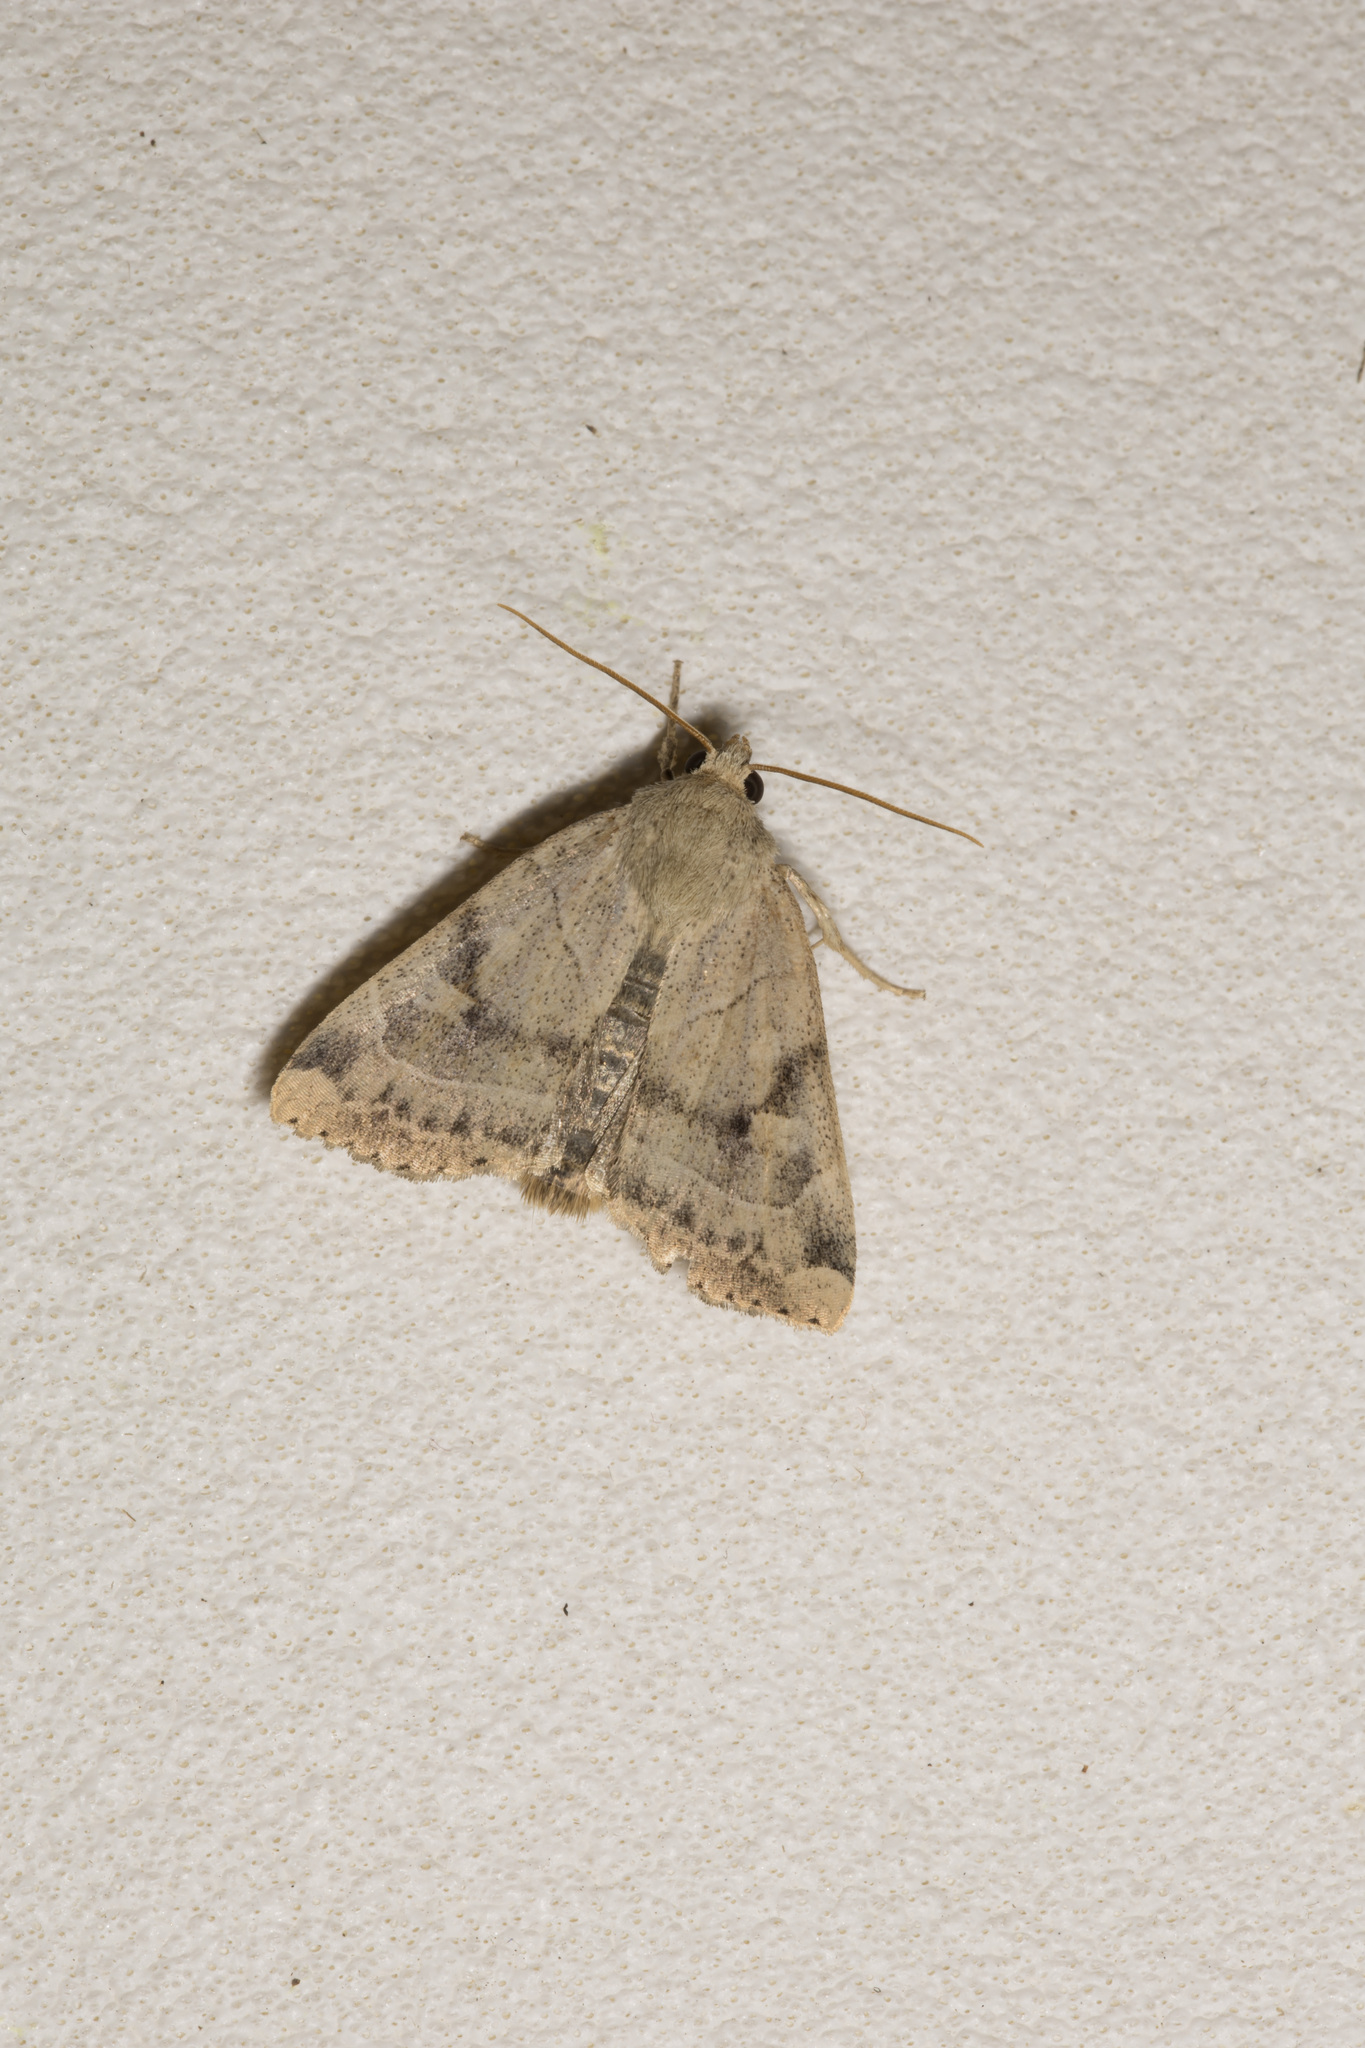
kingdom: Animalia
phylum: Arthropoda
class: Insecta
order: Lepidoptera
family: Noctuidae
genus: Cosmia
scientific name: Cosmia trapezina
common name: Dun-bar
